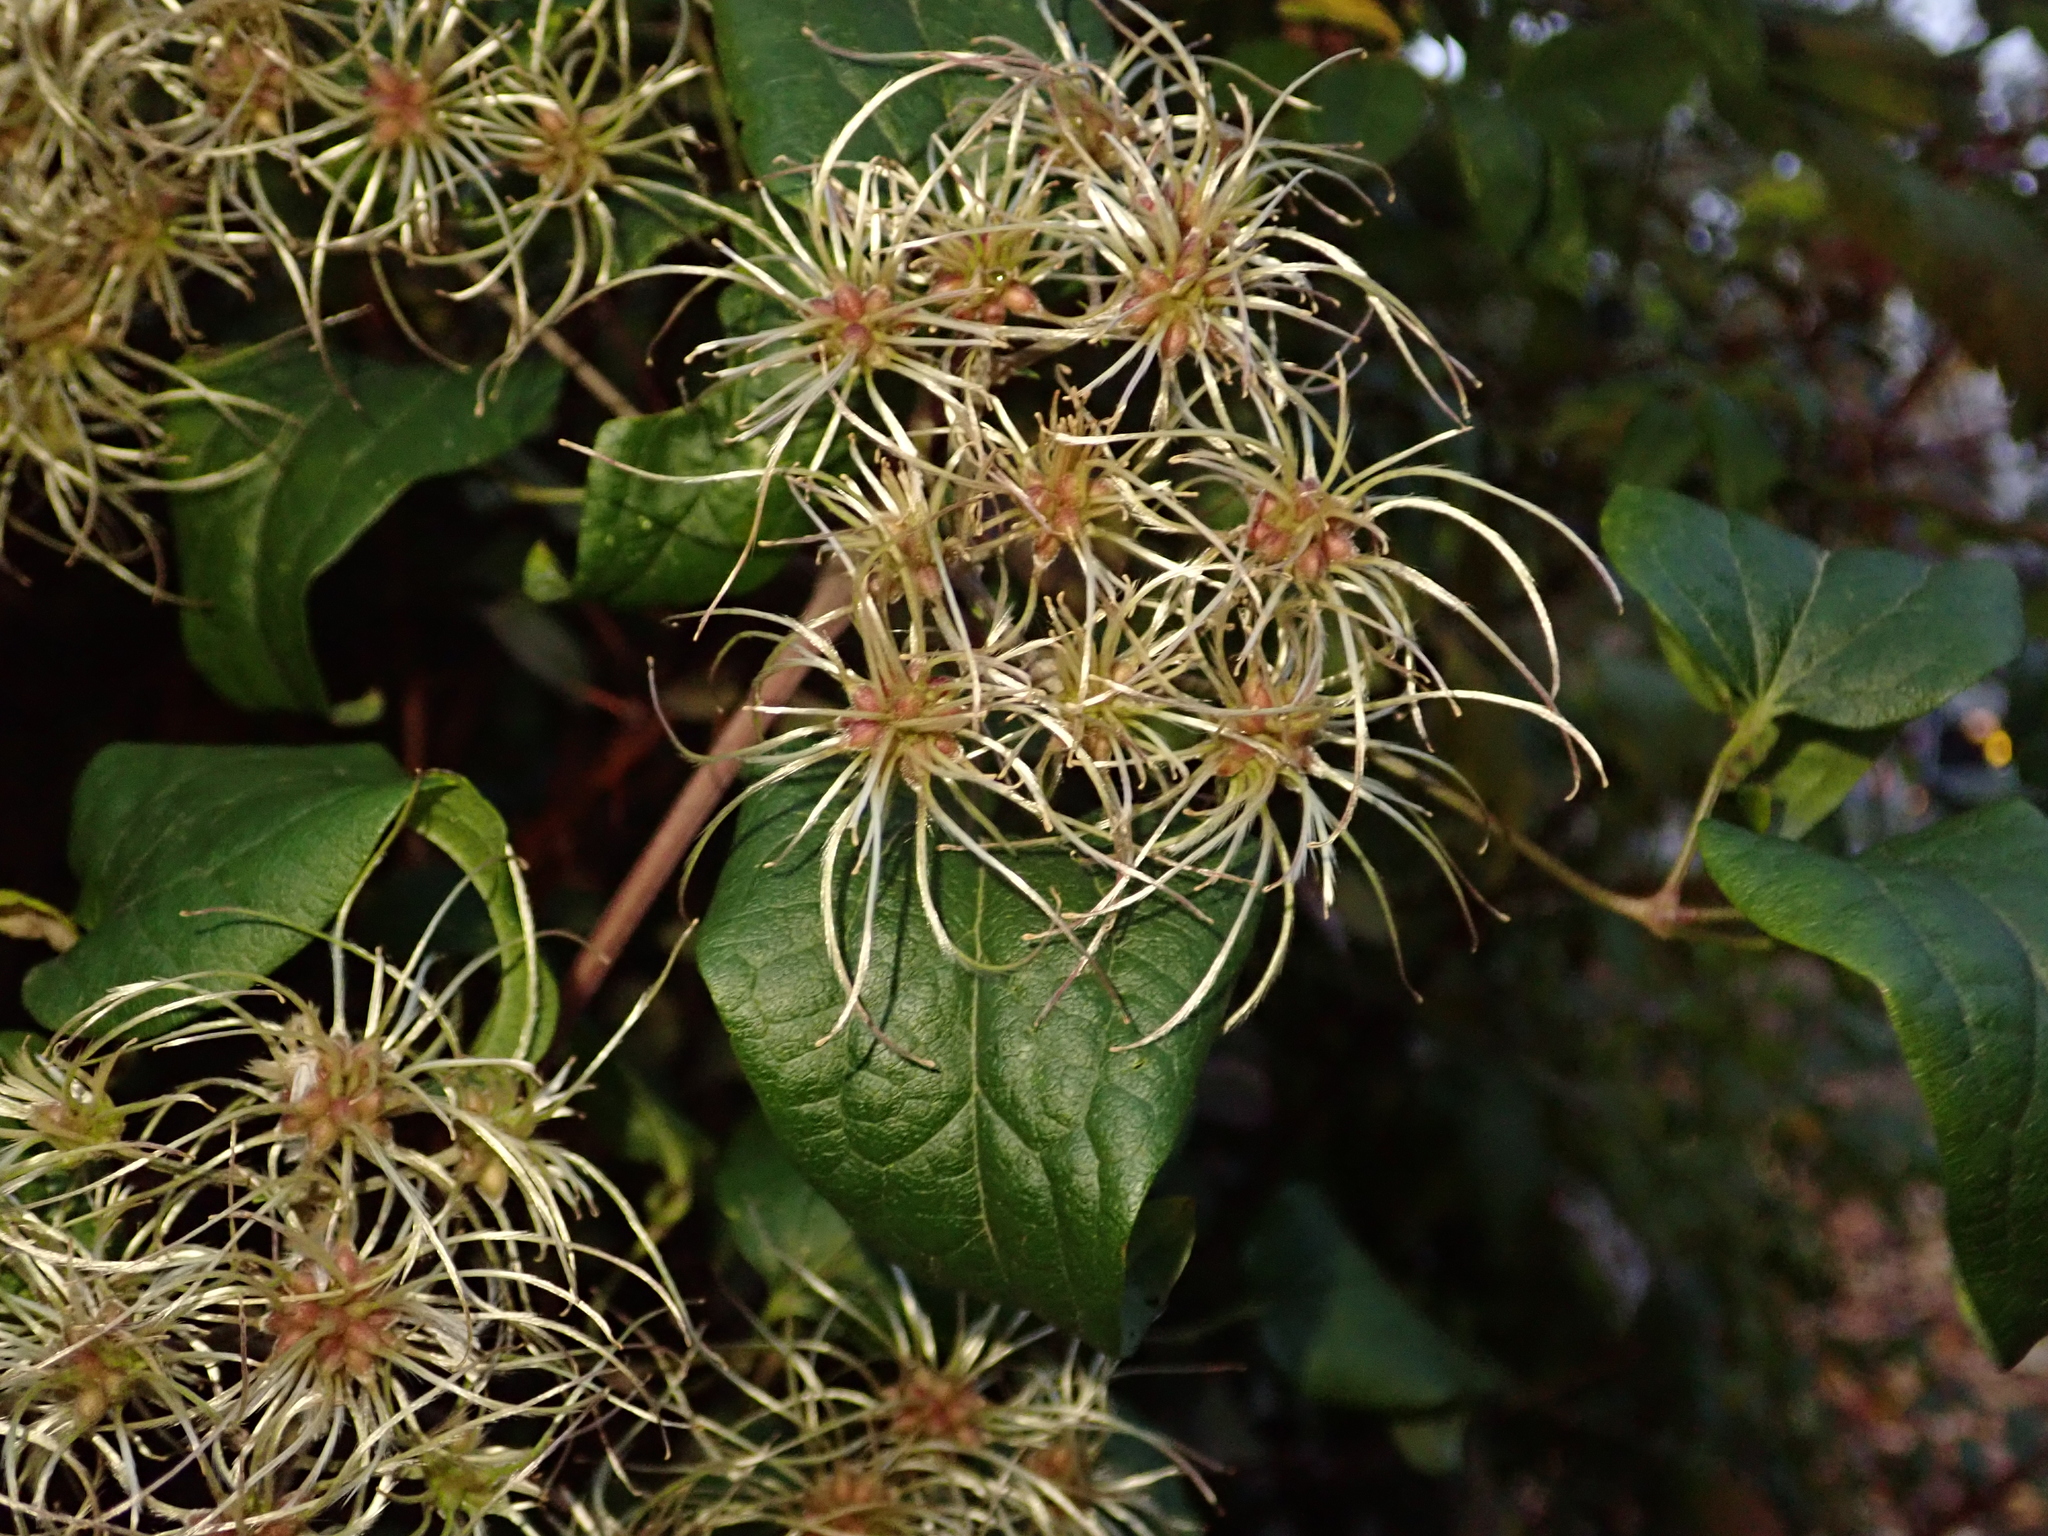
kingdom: Plantae
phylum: Tracheophyta
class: Magnoliopsida
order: Ranunculales
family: Ranunculaceae
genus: Clematis
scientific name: Clematis vitalba
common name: Evergreen clematis
